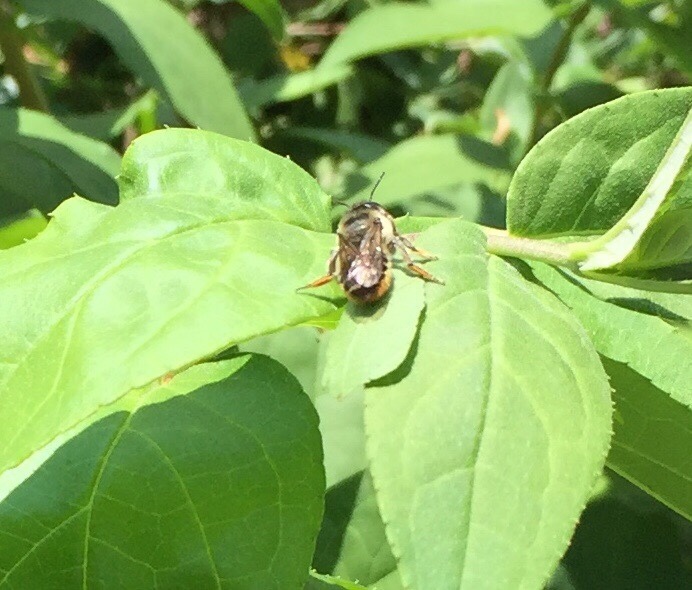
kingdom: Animalia
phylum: Arthropoda
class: Insecta
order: Hymenoptera
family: Megachilidae
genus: Megachile
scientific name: Megachile
